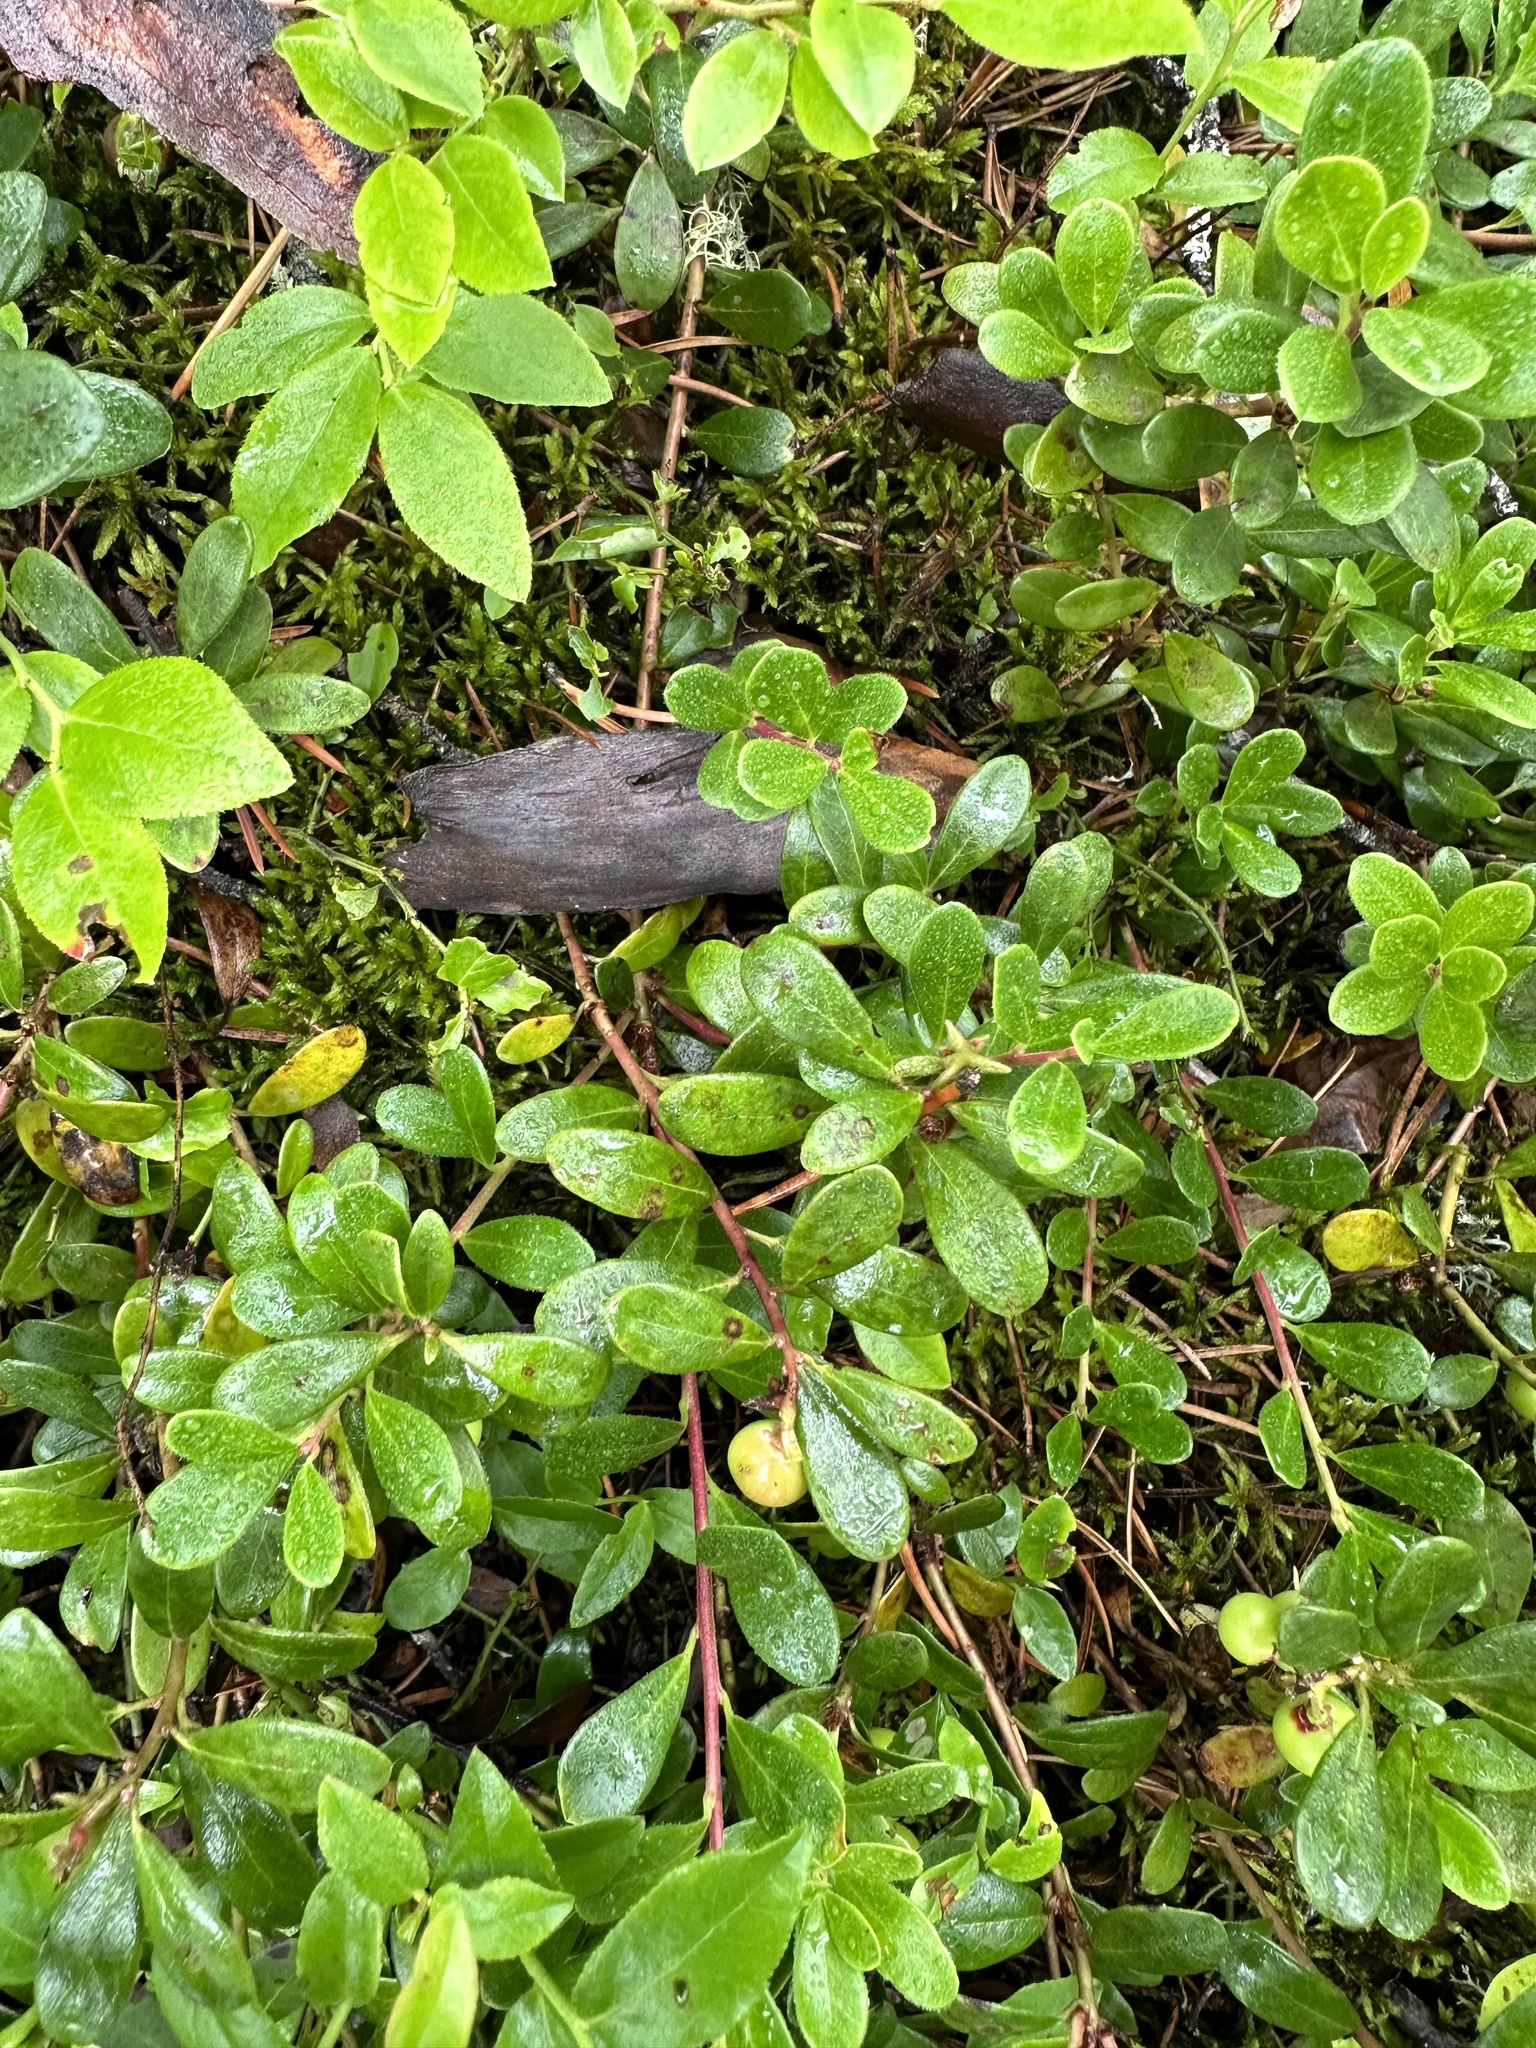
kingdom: Plantae
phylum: Tracheophyta
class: Magnoliopsida
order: Ericales
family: Ericaceae
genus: Arctostaphylos
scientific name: Arctostaphylos uva-ursi
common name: Bearberry
